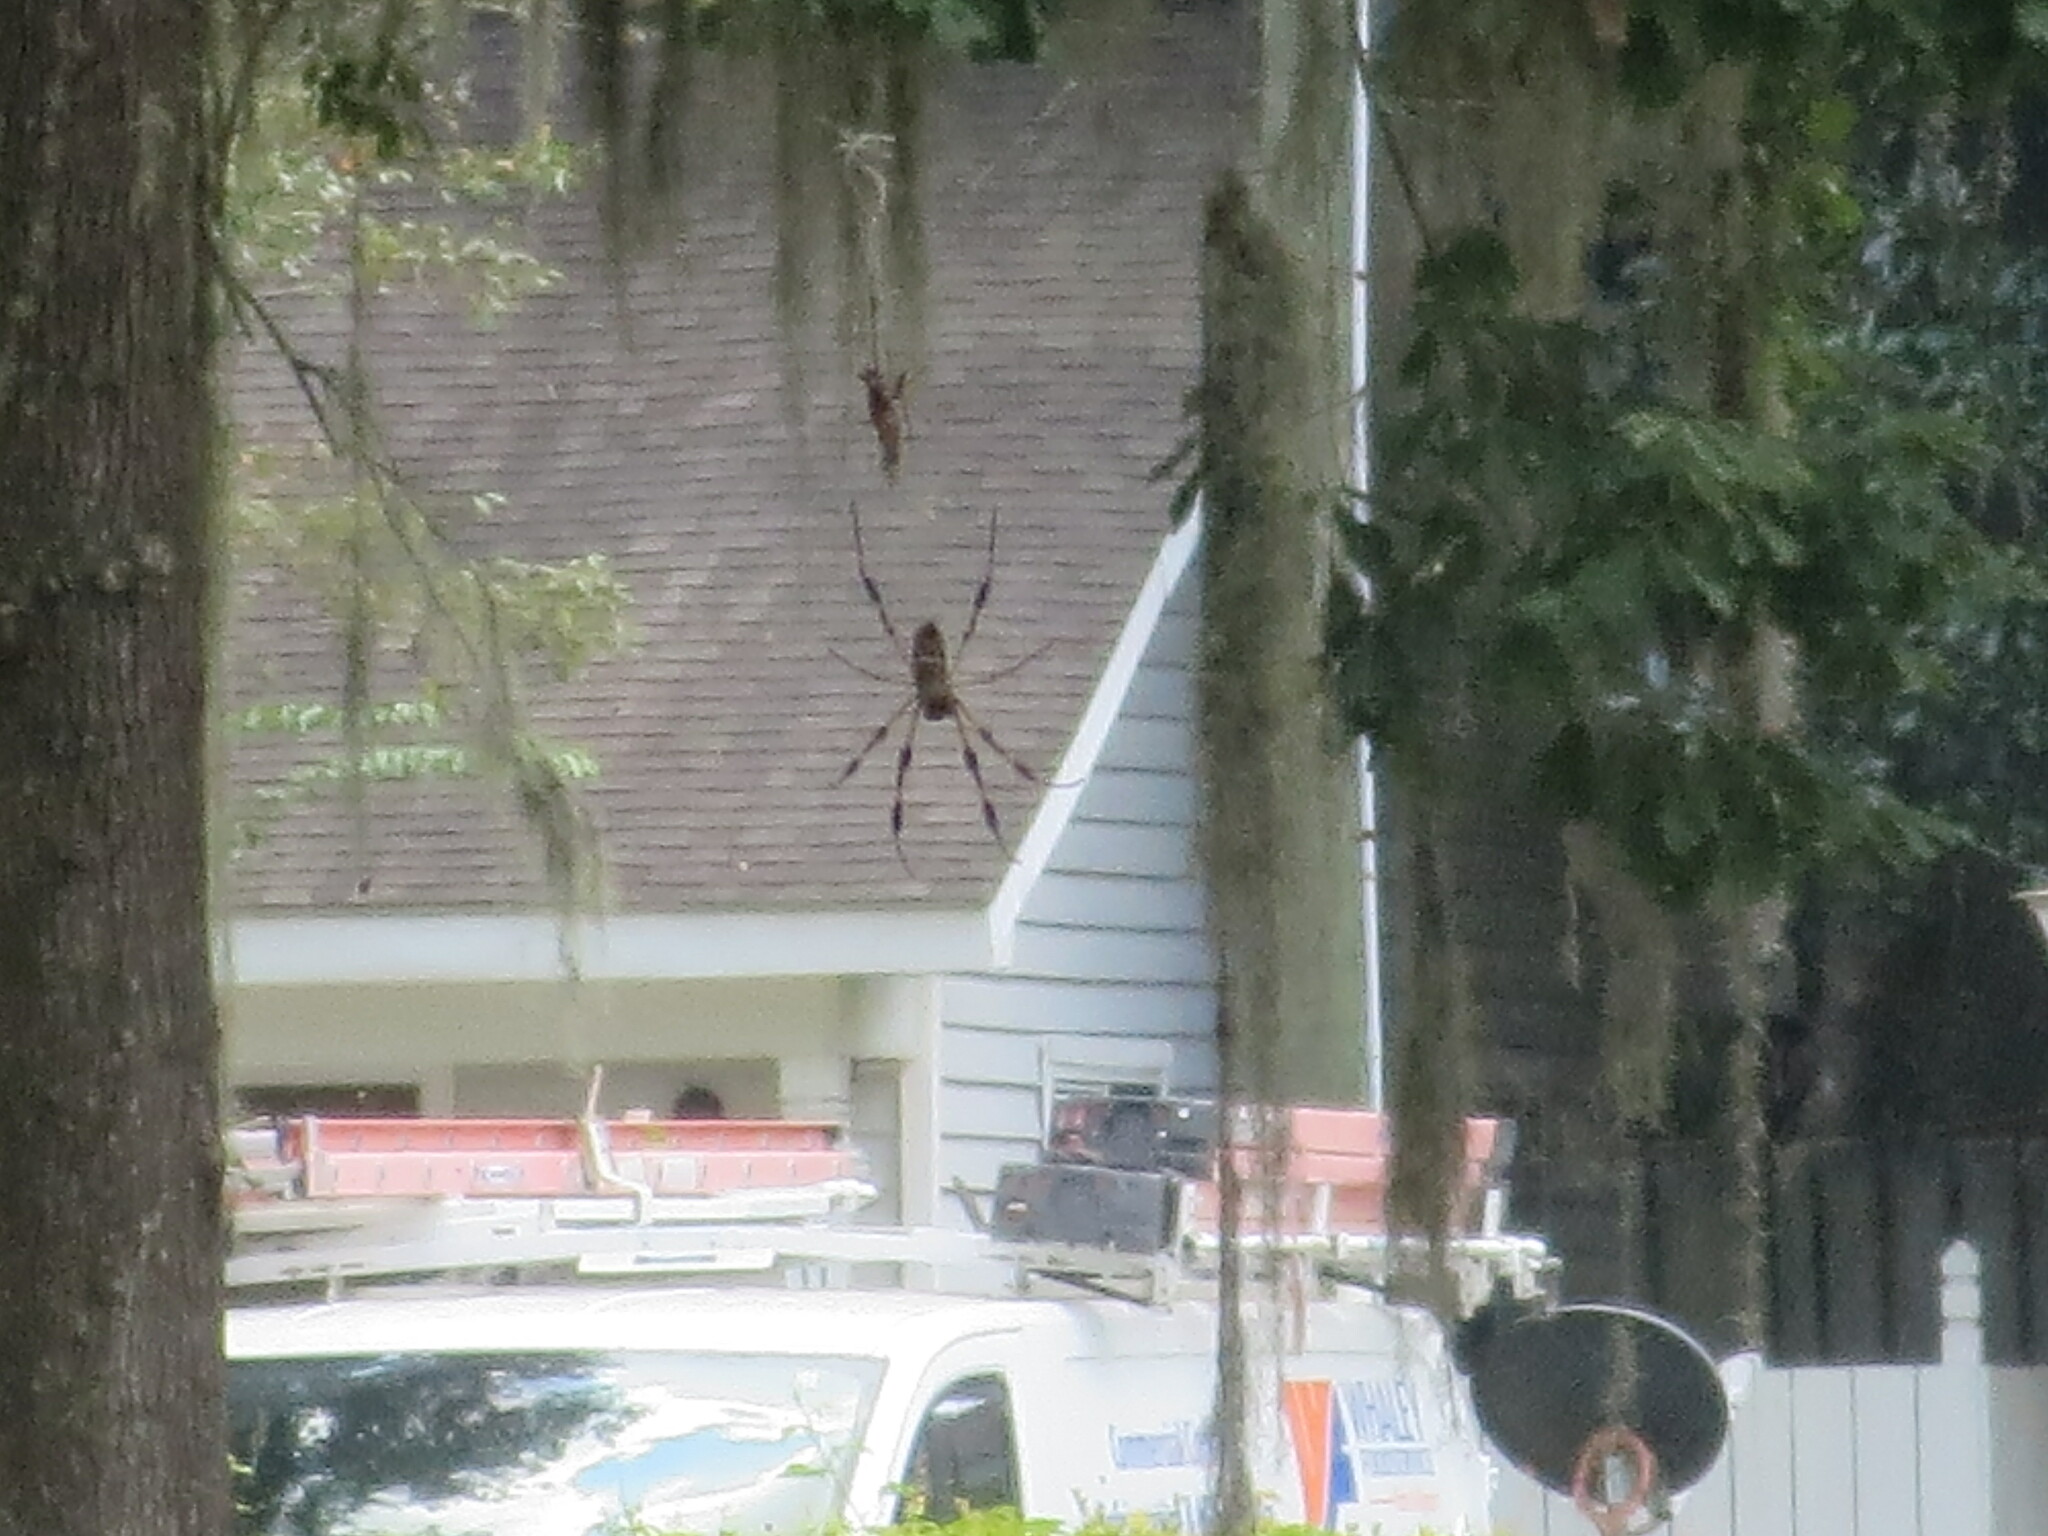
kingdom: Animalia
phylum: Arthropoda
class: Arachnida
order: Araneae
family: Araneidae
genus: Trichonephila
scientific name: Trichonephila clavipes
